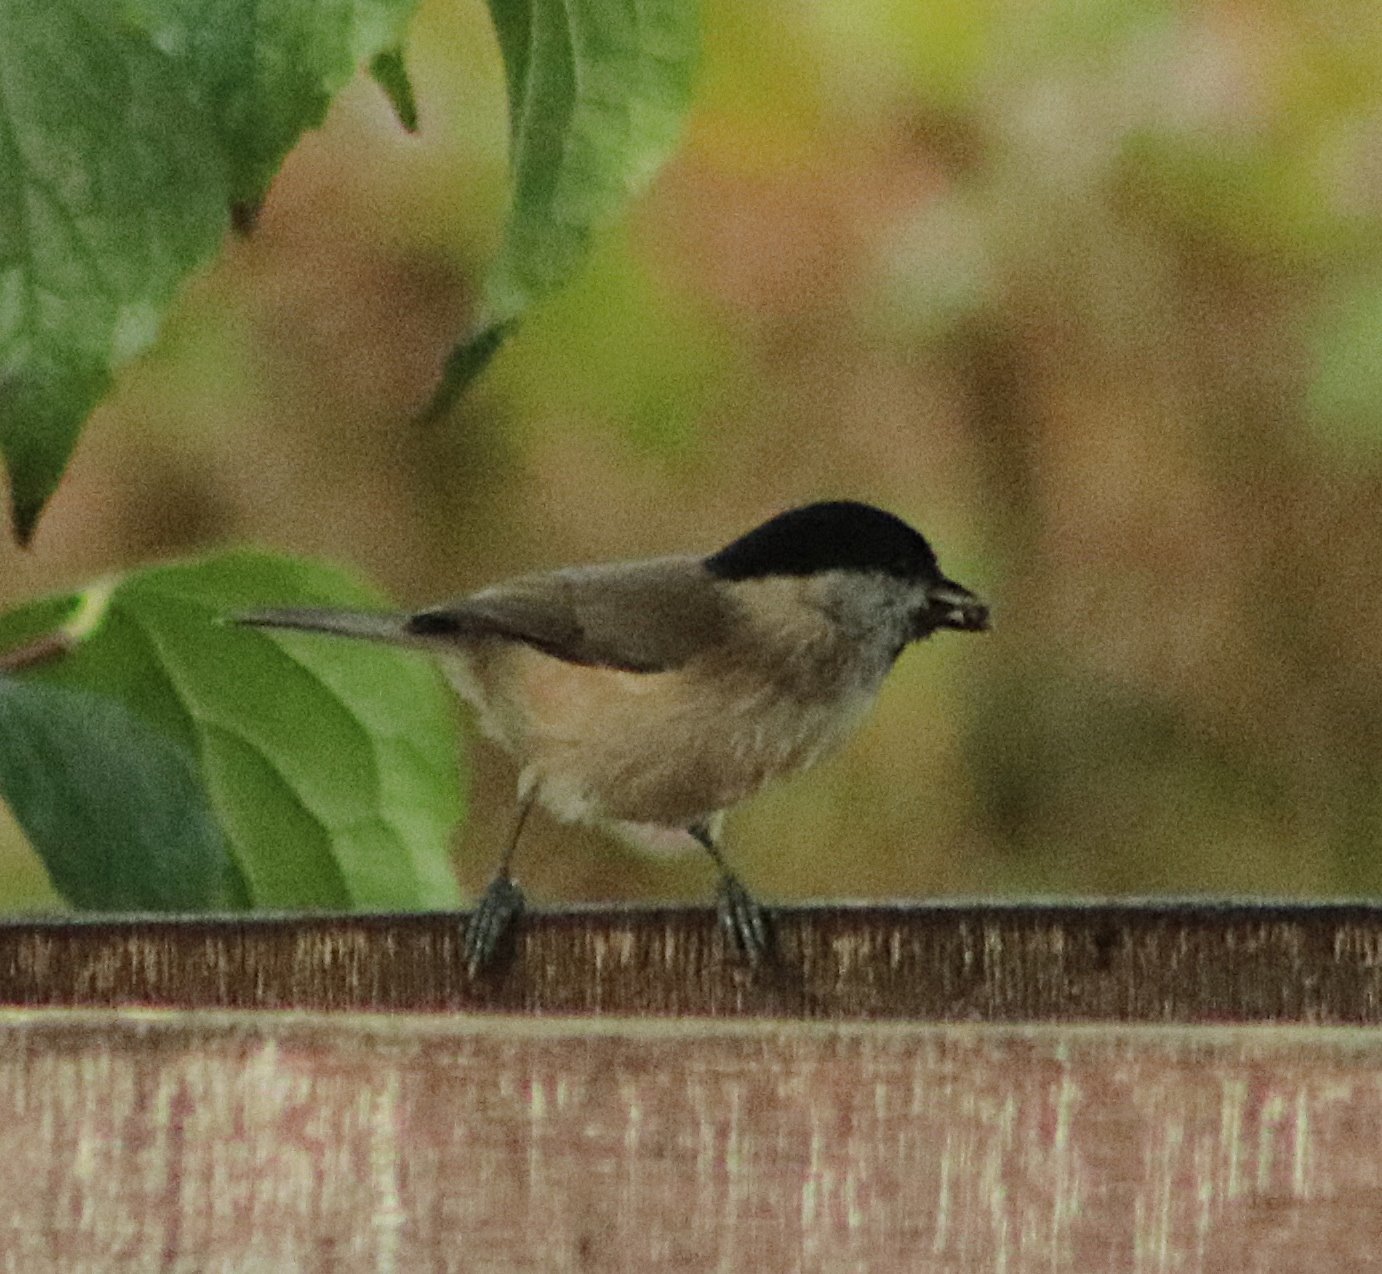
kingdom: Animalia
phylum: Chordata
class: Aves
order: Passeriformes
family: Paridae
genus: Poecile
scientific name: Poecile palustris
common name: Marsh tit
